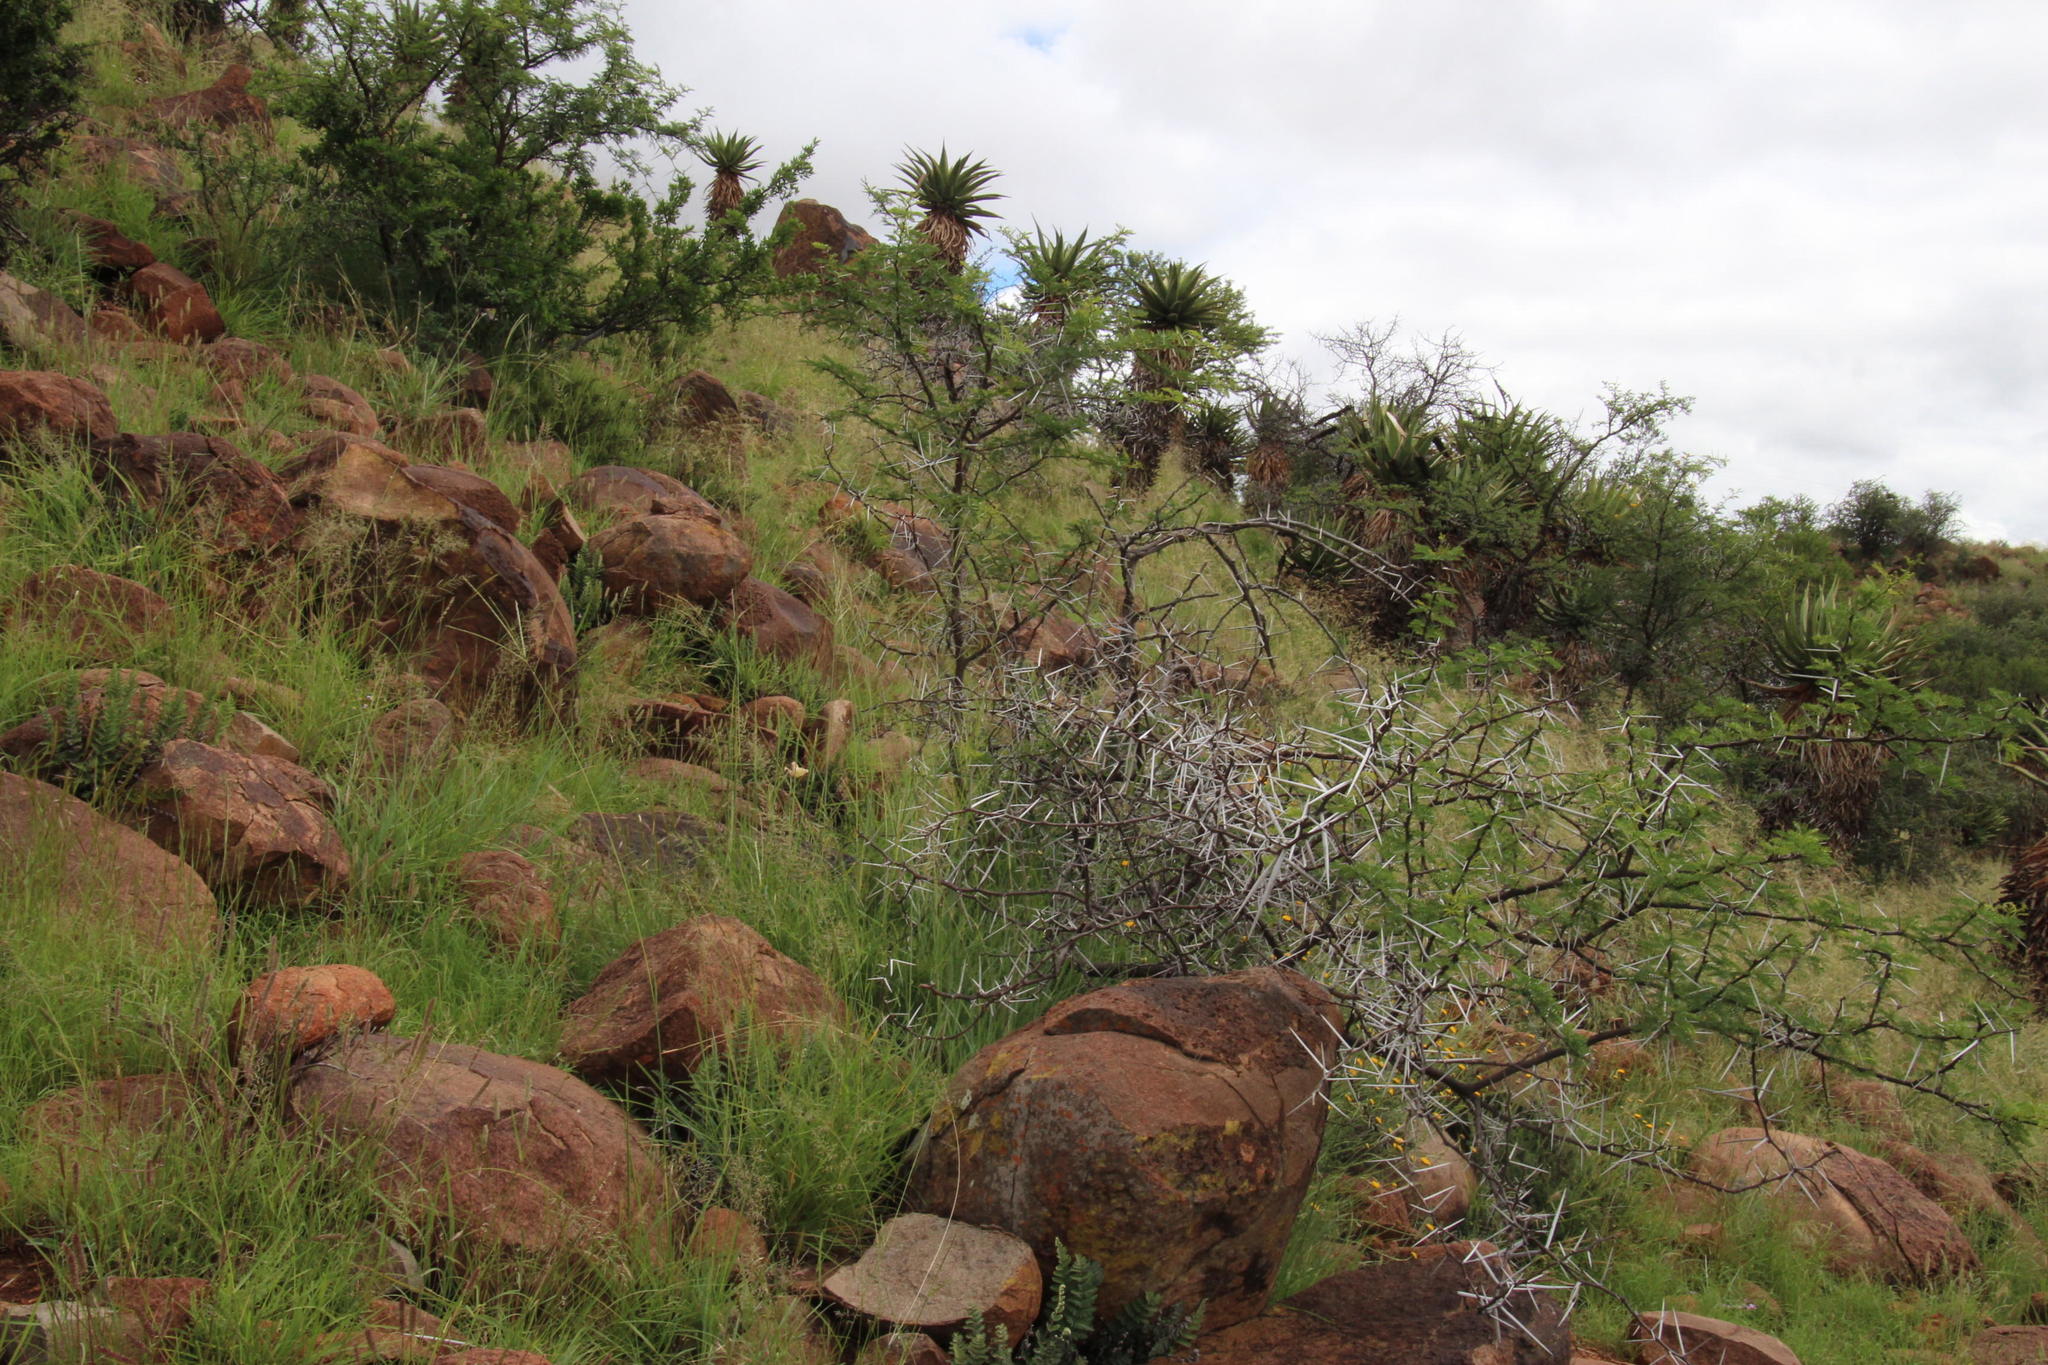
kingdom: Plantae
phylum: Tracheophyta
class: Magnoliopsida
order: Fabales
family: Fabaceae
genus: Vachellia
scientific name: Vachellia karroo
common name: Sweet thorn
